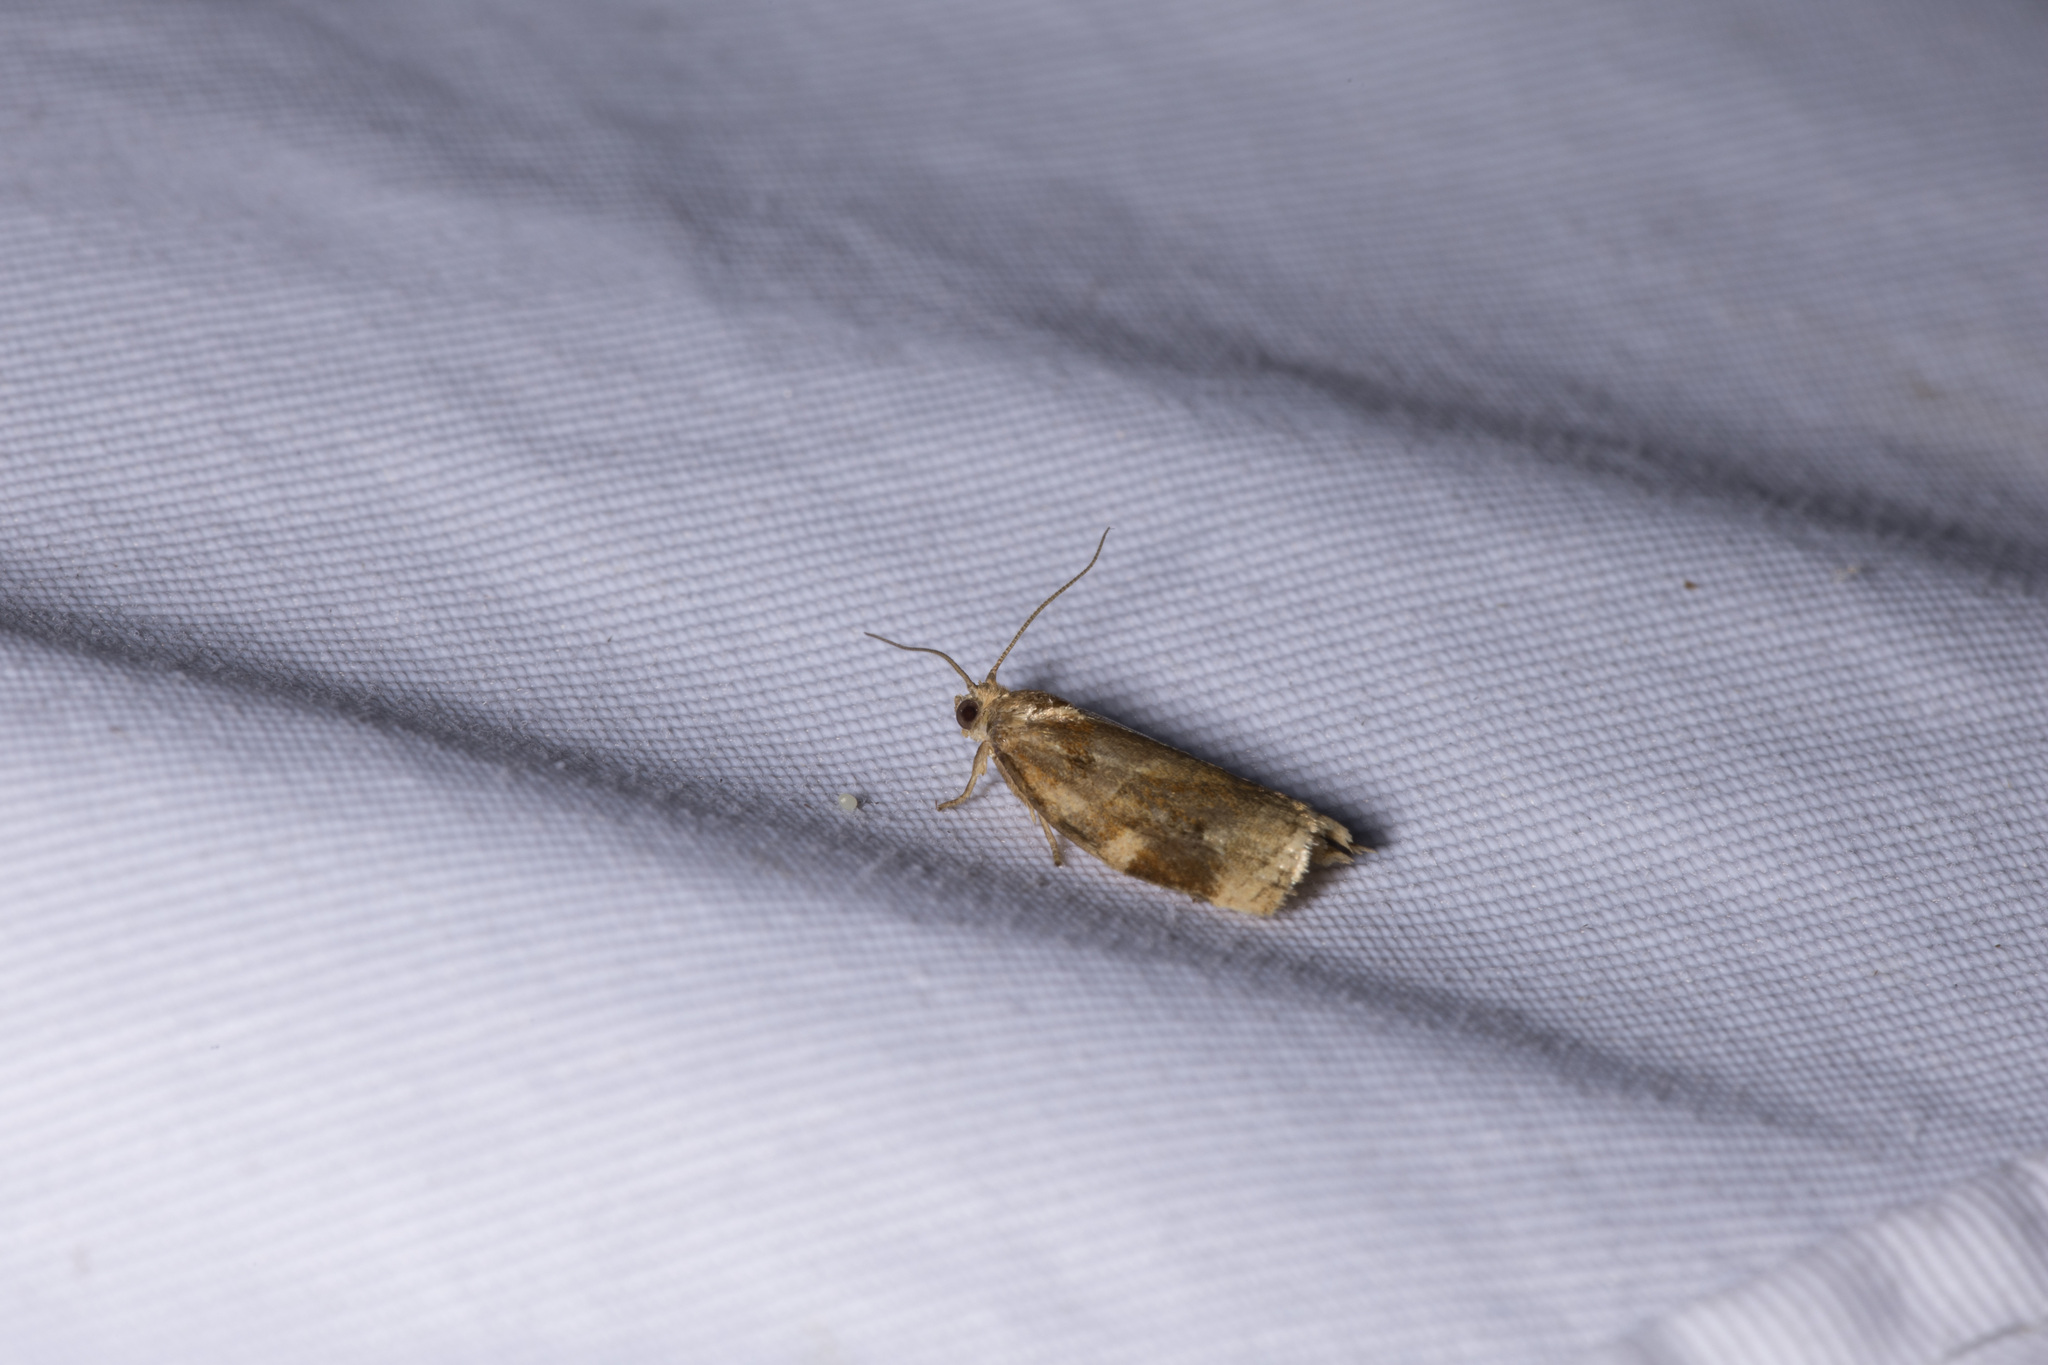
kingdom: Animalia
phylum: Arthropoda
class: Insecta
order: Lepidoptera
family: Tortricidae
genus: Archips
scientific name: Archips xylosteana
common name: Variegated golden tortrix
